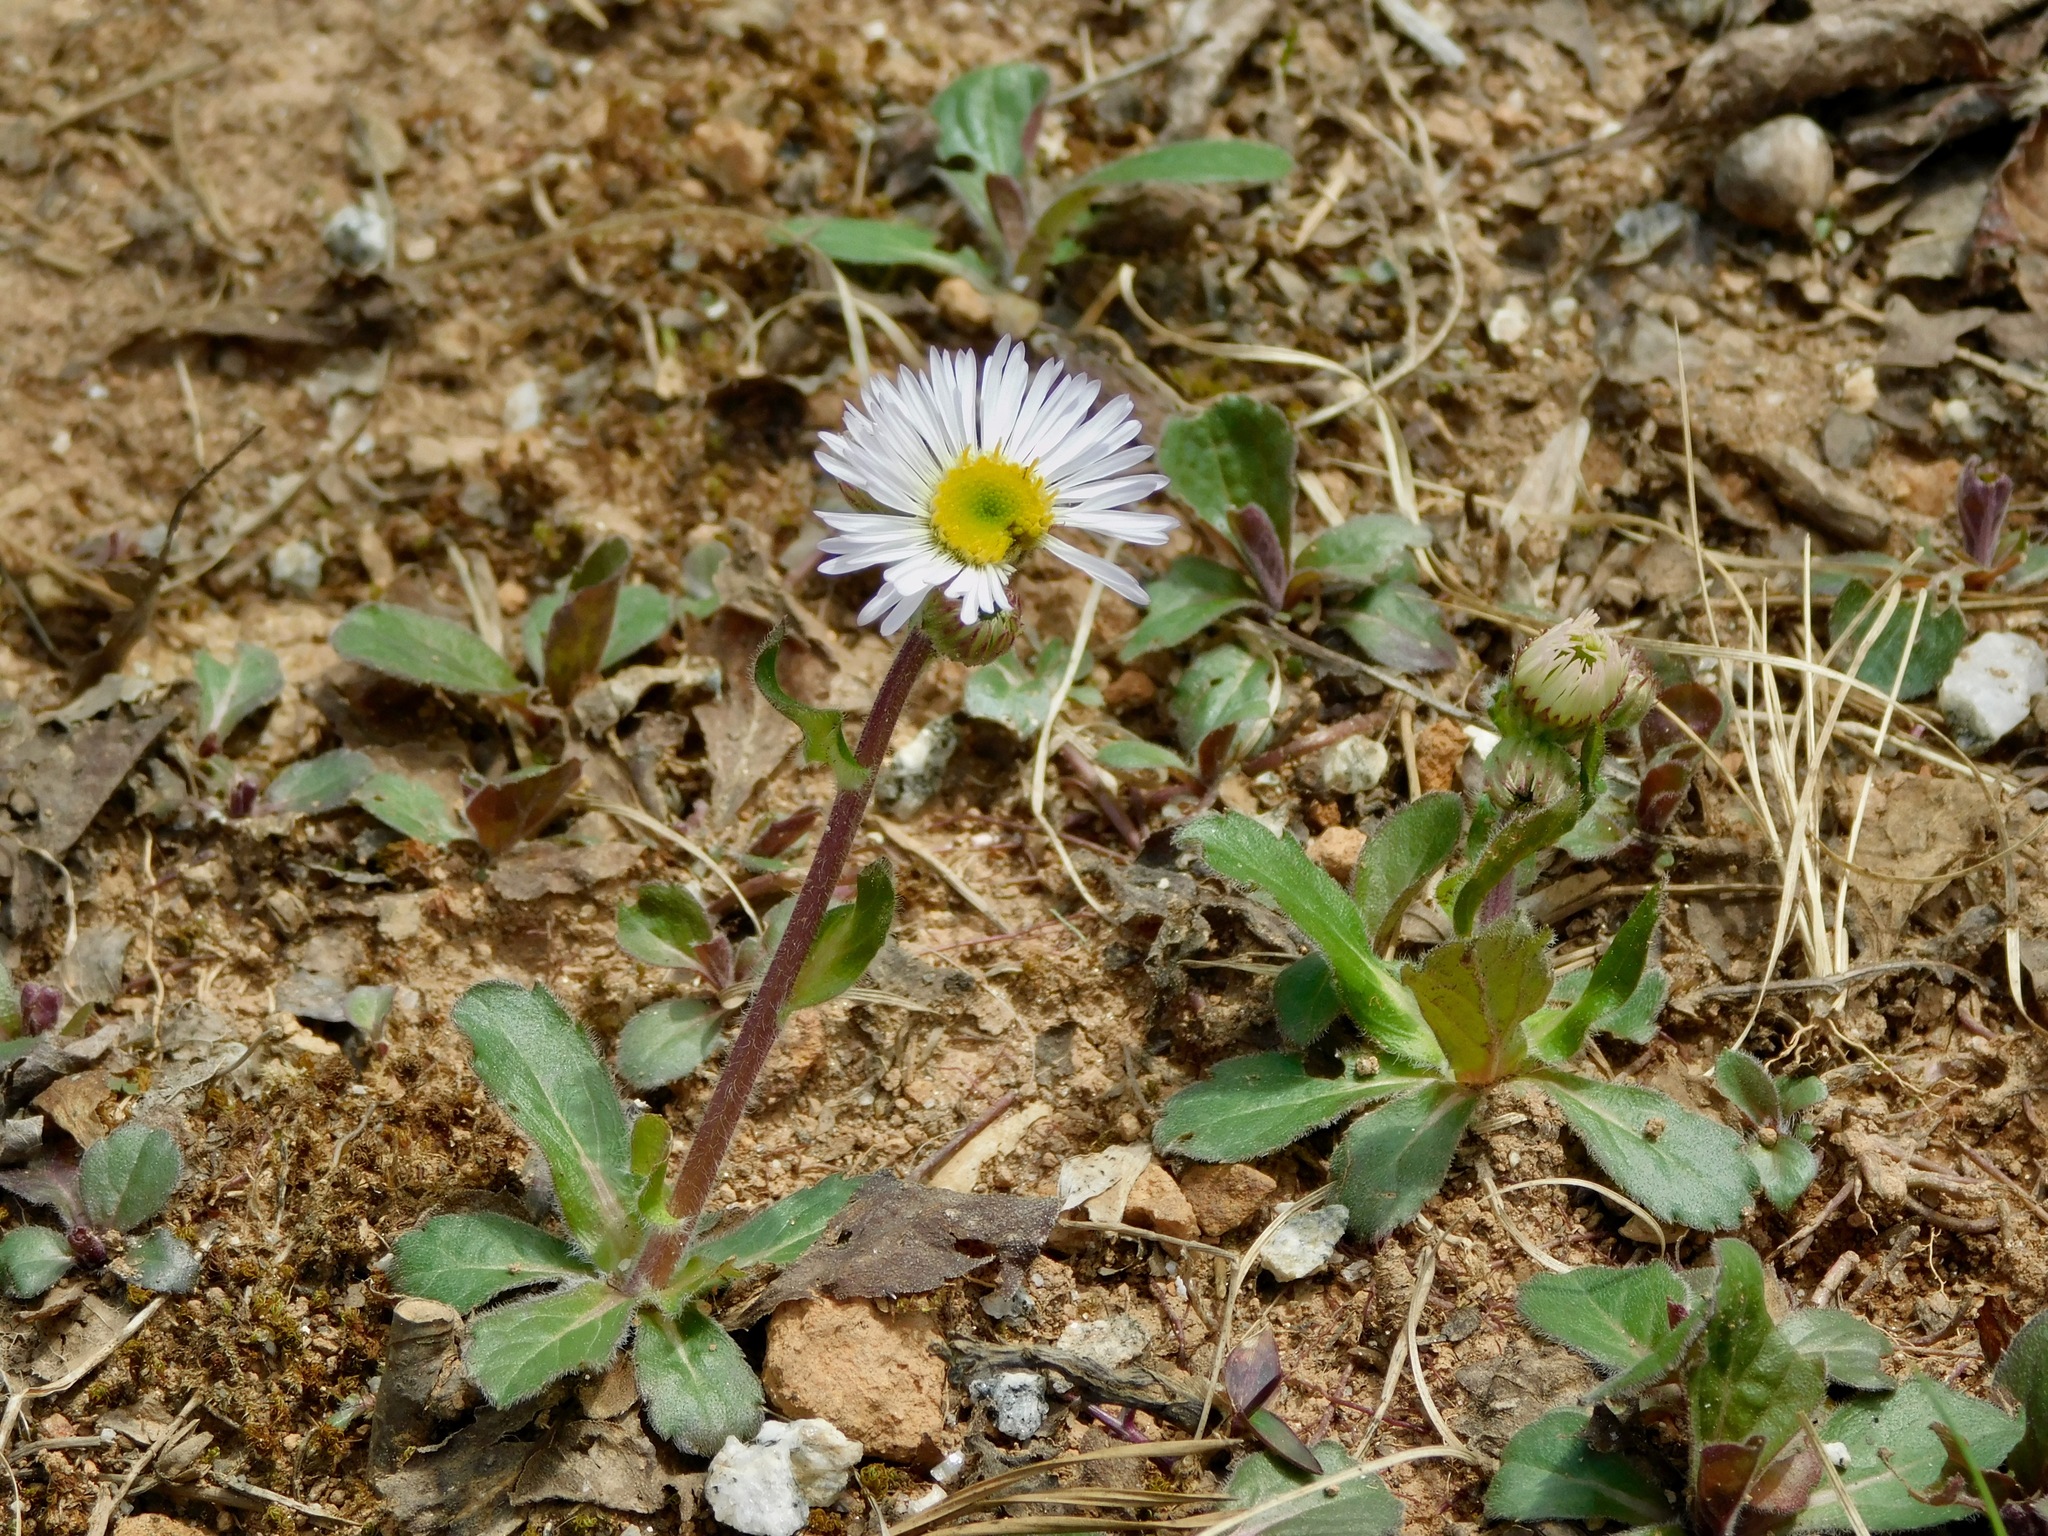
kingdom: Plantae
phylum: Tracheophyta
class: Magnoliopsida
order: Asterales
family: Asteraceae
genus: Erigeron
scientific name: Erigeron pulchellus
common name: Hairy fleabane
